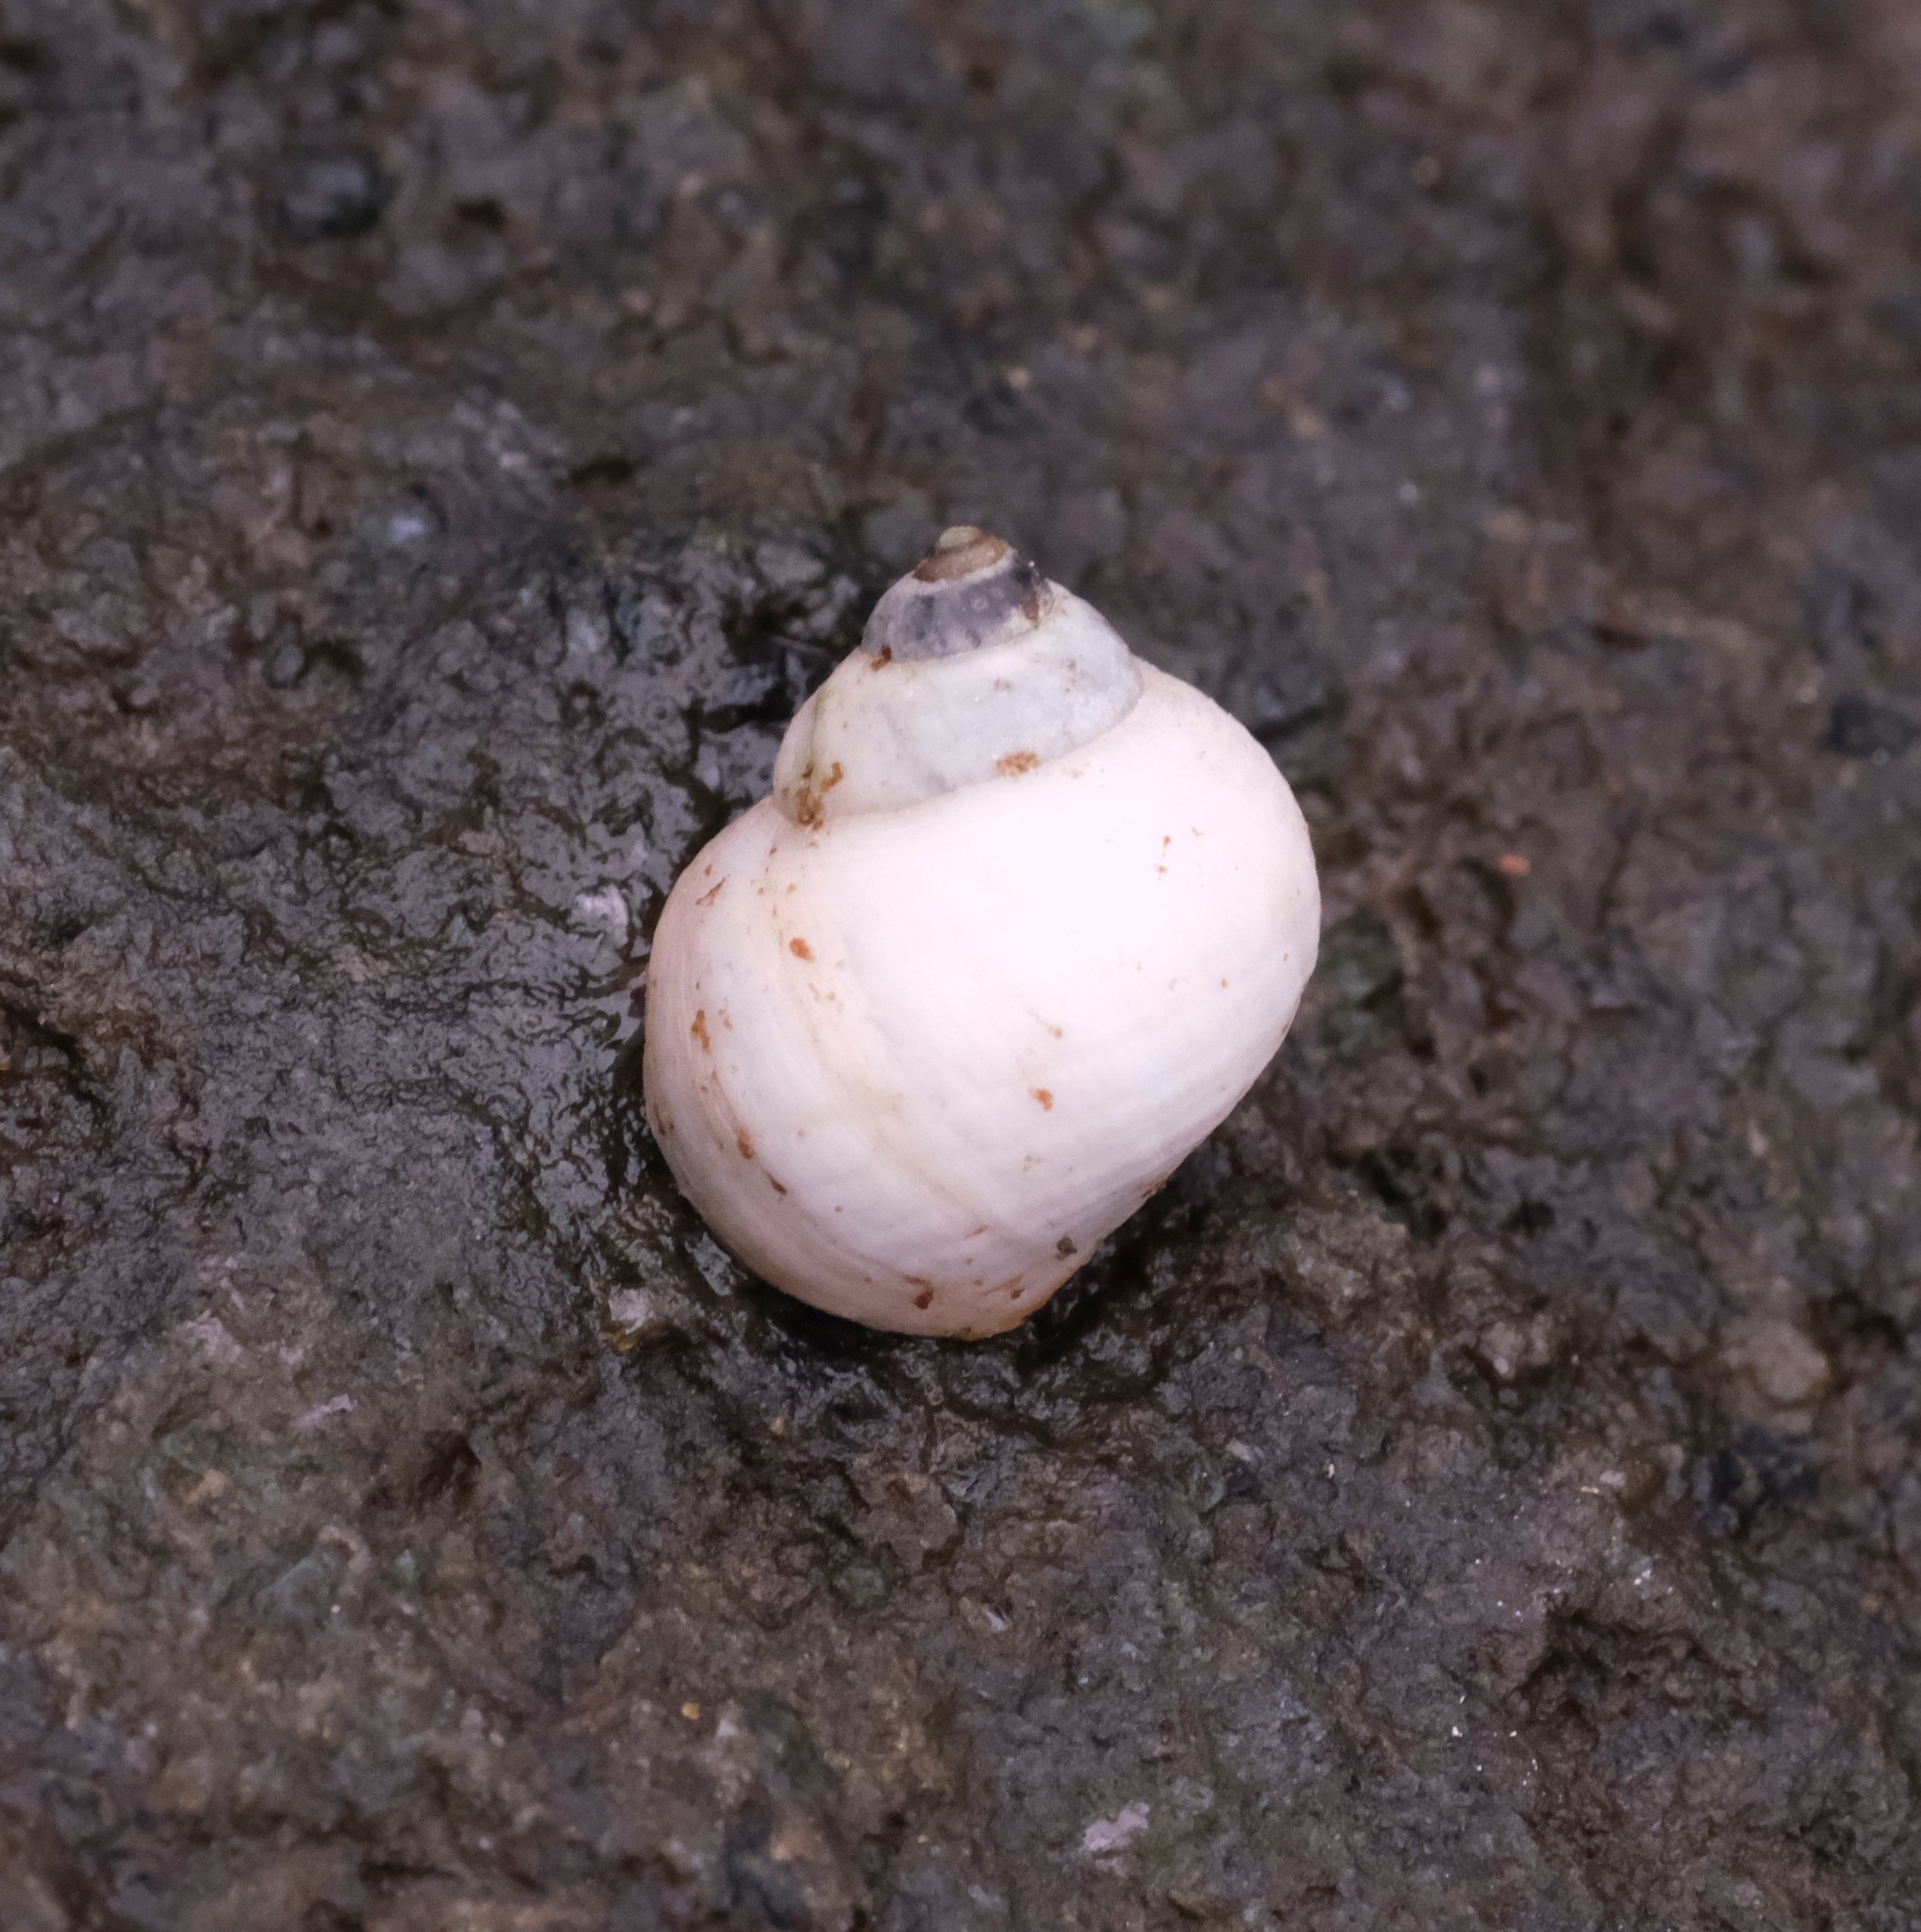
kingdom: Animalia
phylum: Mollusca
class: Gastropoda
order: Littorinimorpha
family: Littorinidae
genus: Littorina
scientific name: Littorina saxatilis
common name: Black-lined periwinkle
